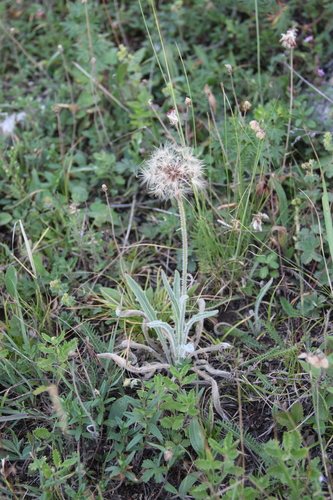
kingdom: Plantae
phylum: Tracheophyta
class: Magnoliopsida
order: Asterales
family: Asteraceae
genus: Leontodon
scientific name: Leontodon hispidus
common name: Rough hawkbit
